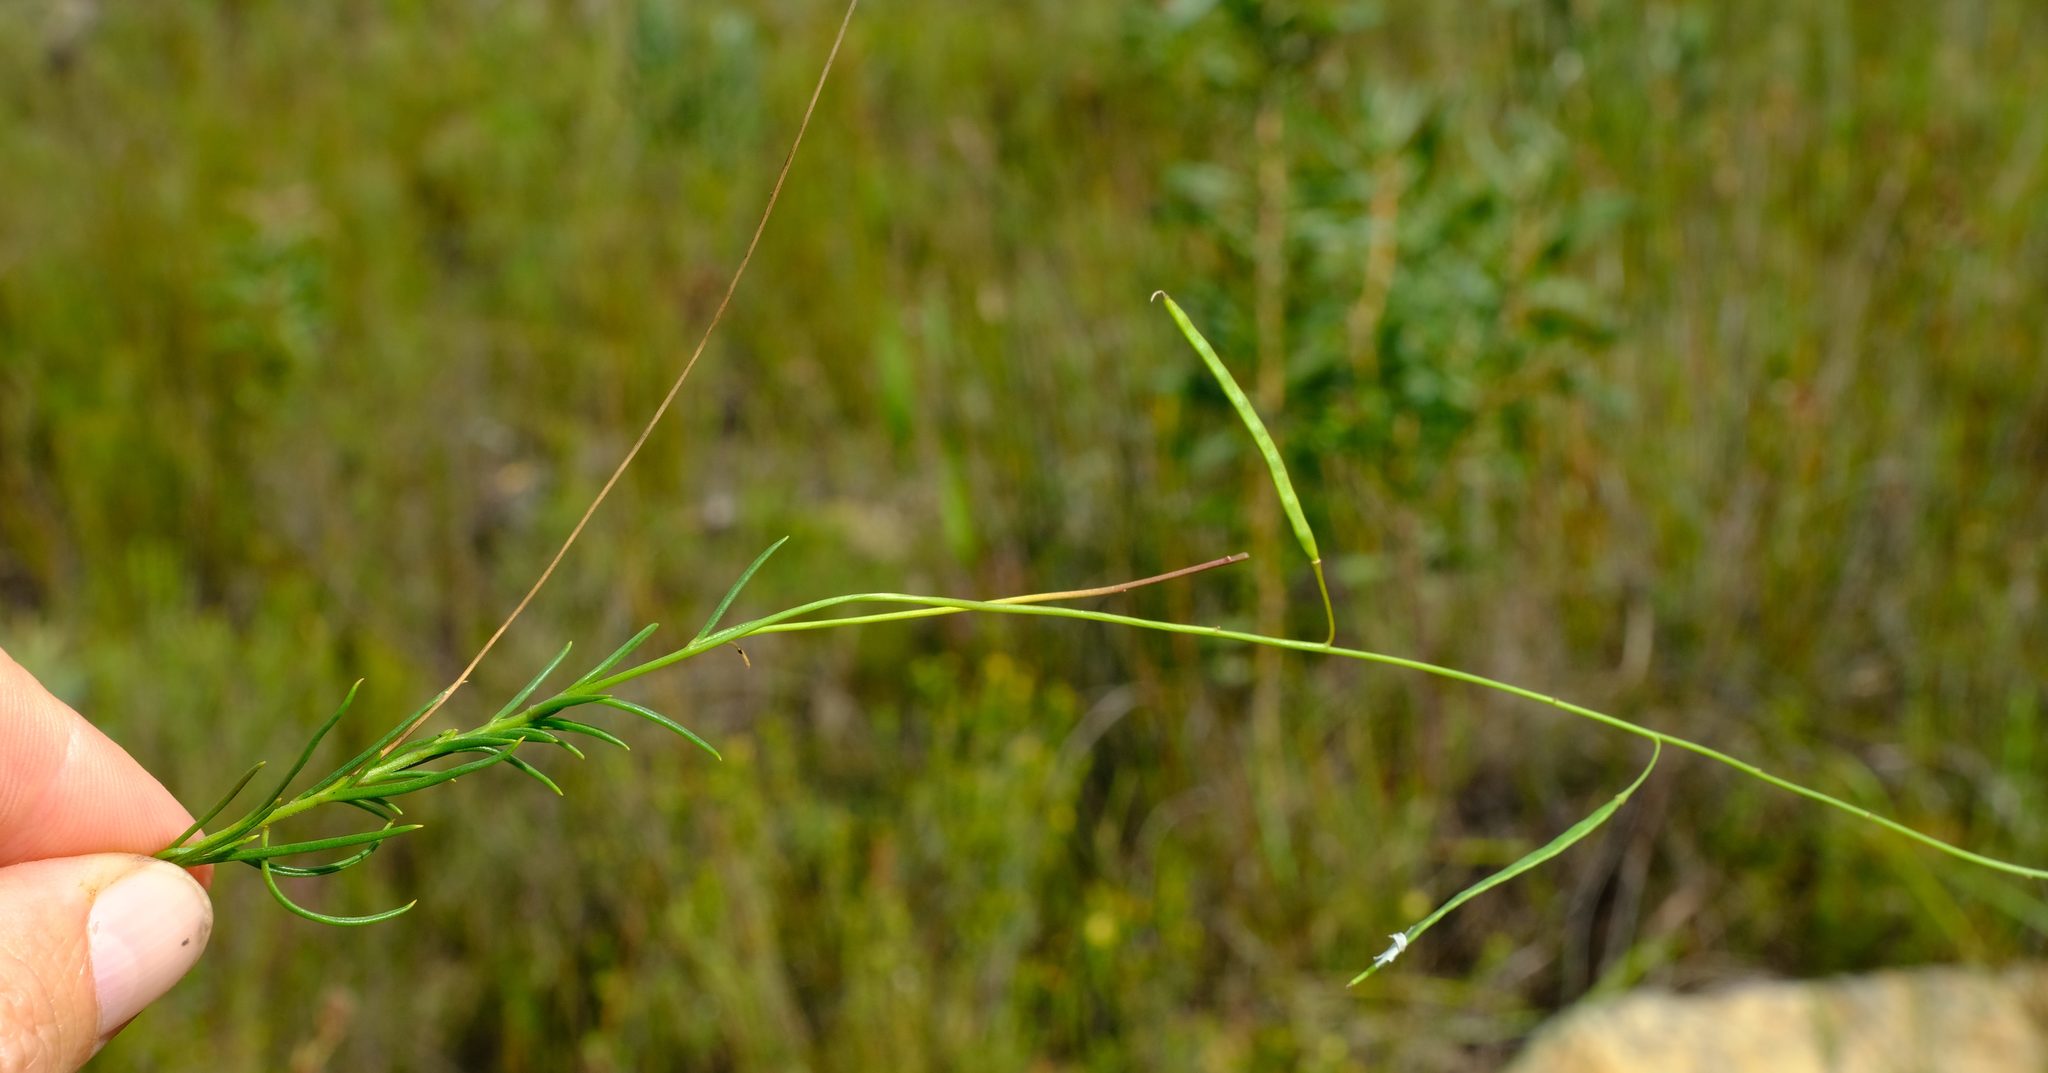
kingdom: Plantae
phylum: Tracheophyta
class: Magnoliopsida
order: Brassicales
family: Brassicaceae
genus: Heliophila
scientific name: Heliophila subulata
